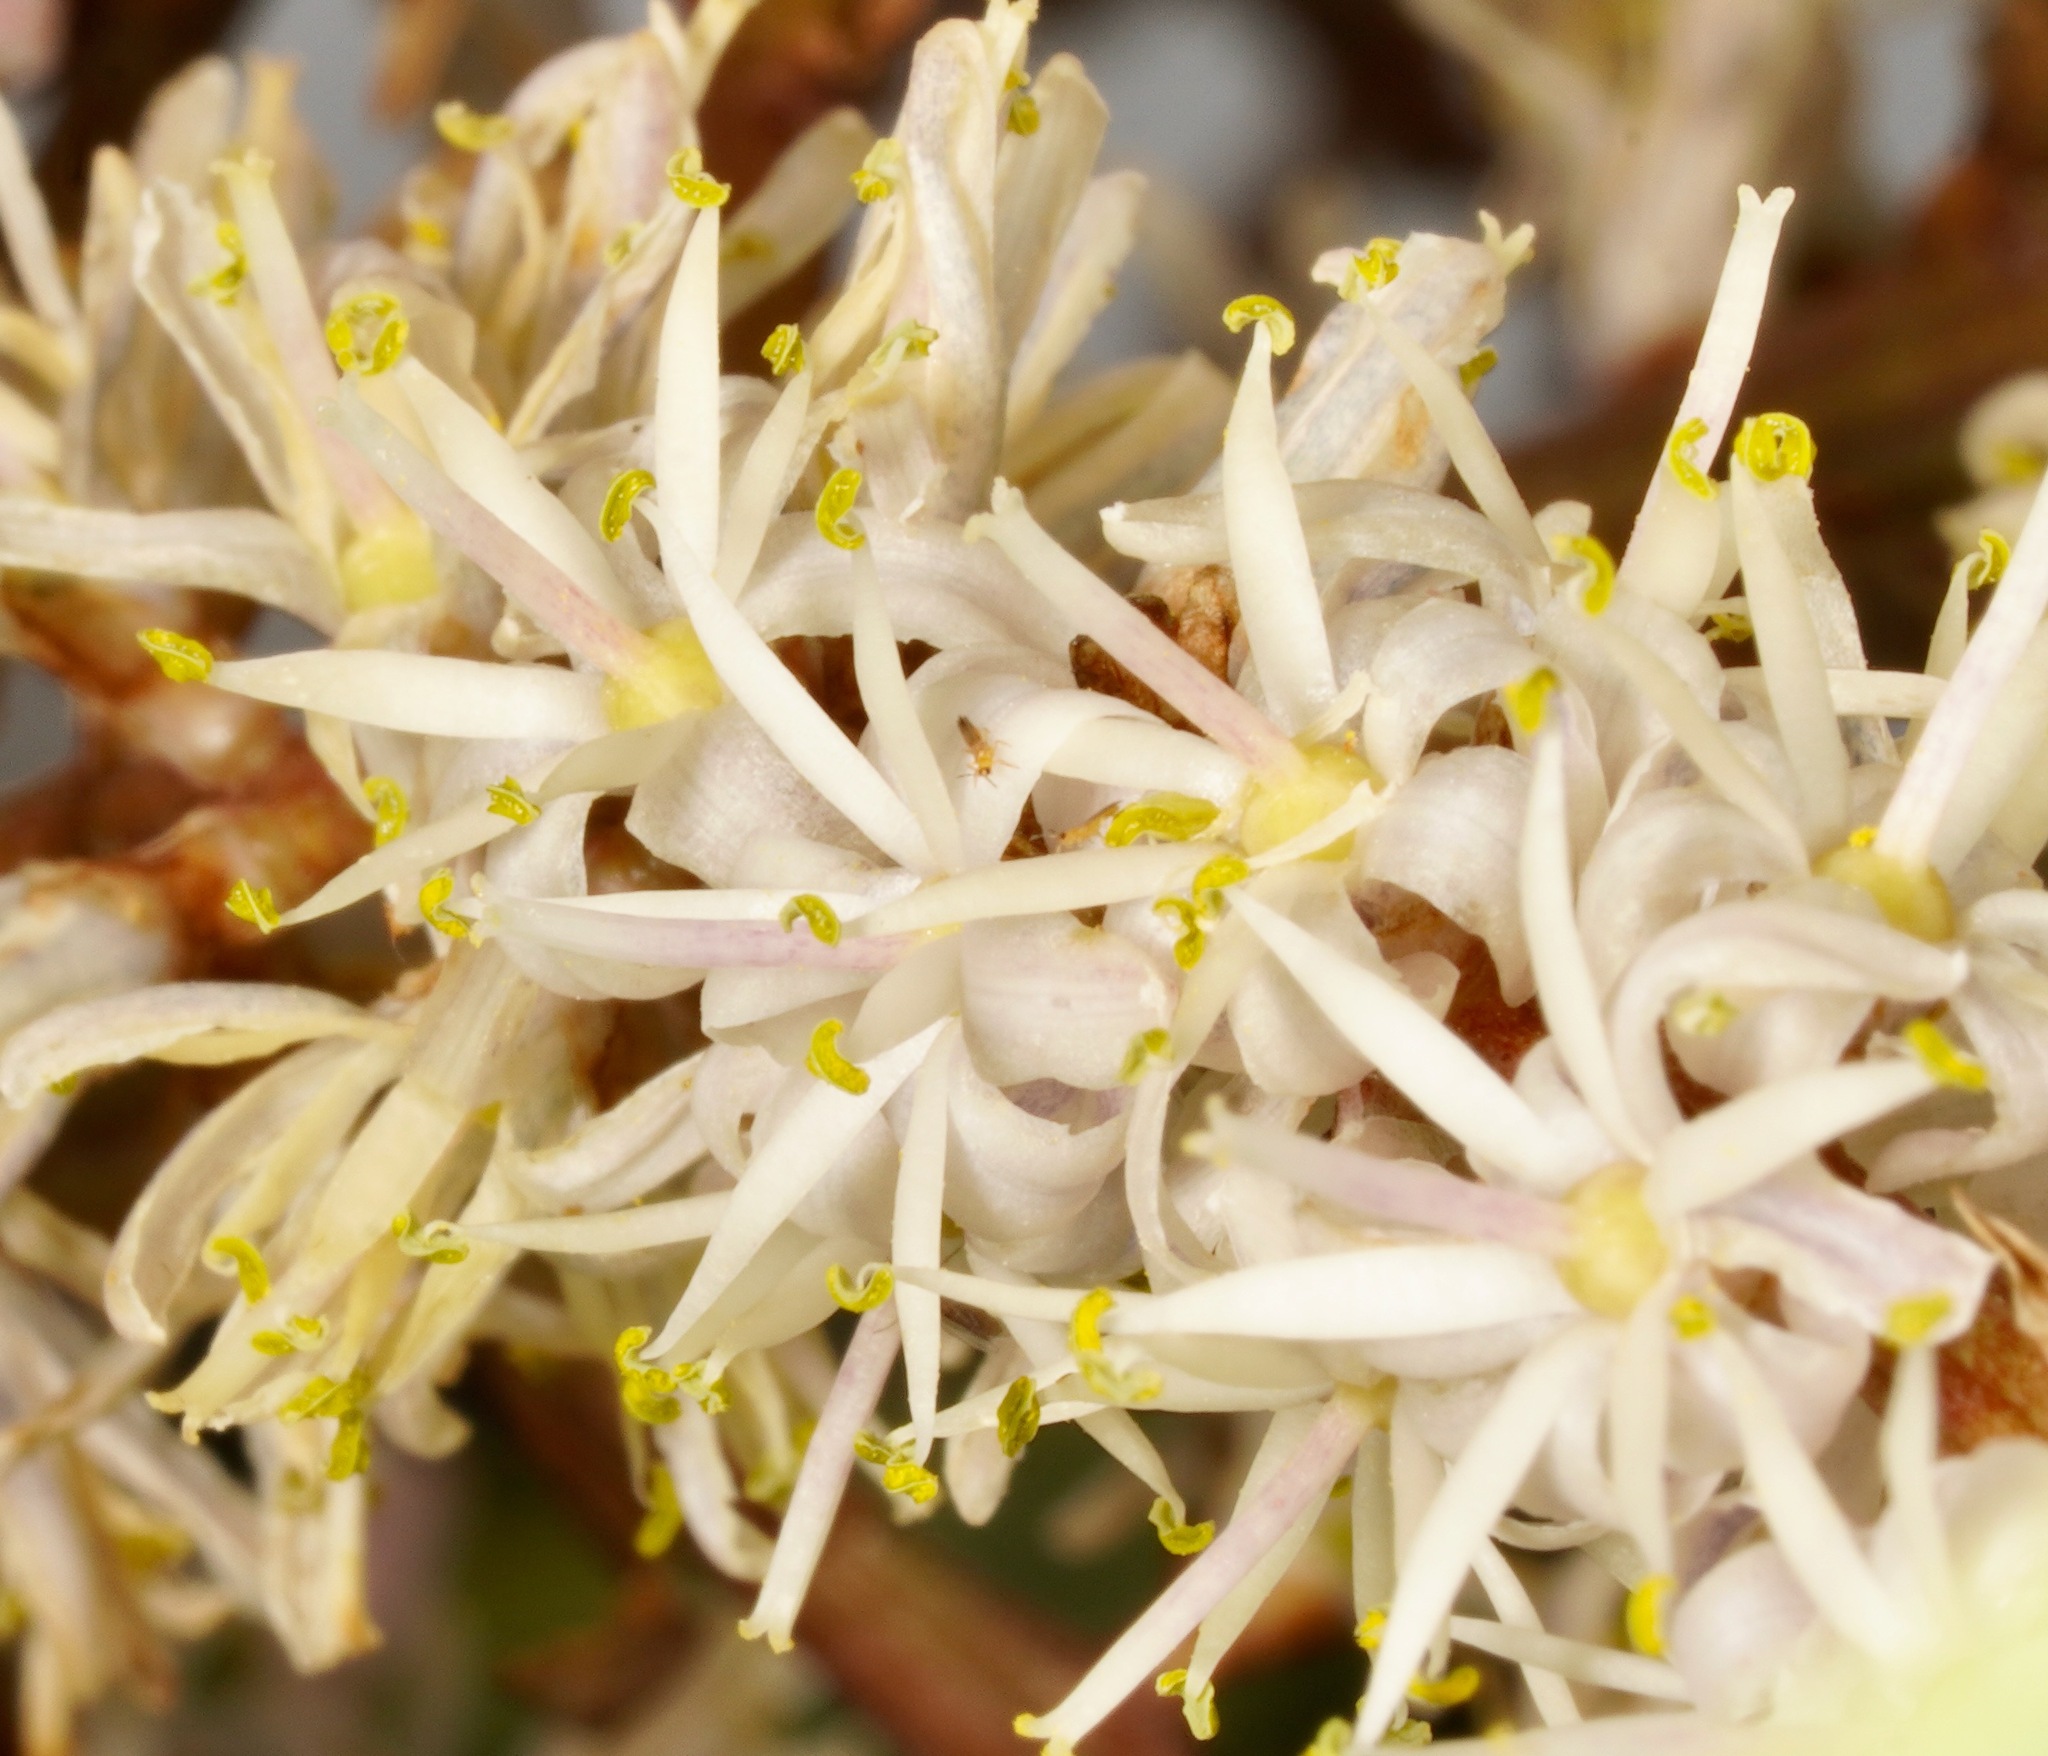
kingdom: Plantae
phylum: Tracheophyta
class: Liliopsida
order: Asparagales
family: Asparagaceae
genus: Cordyline
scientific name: Cordyline australis
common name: Cabbage-palm
